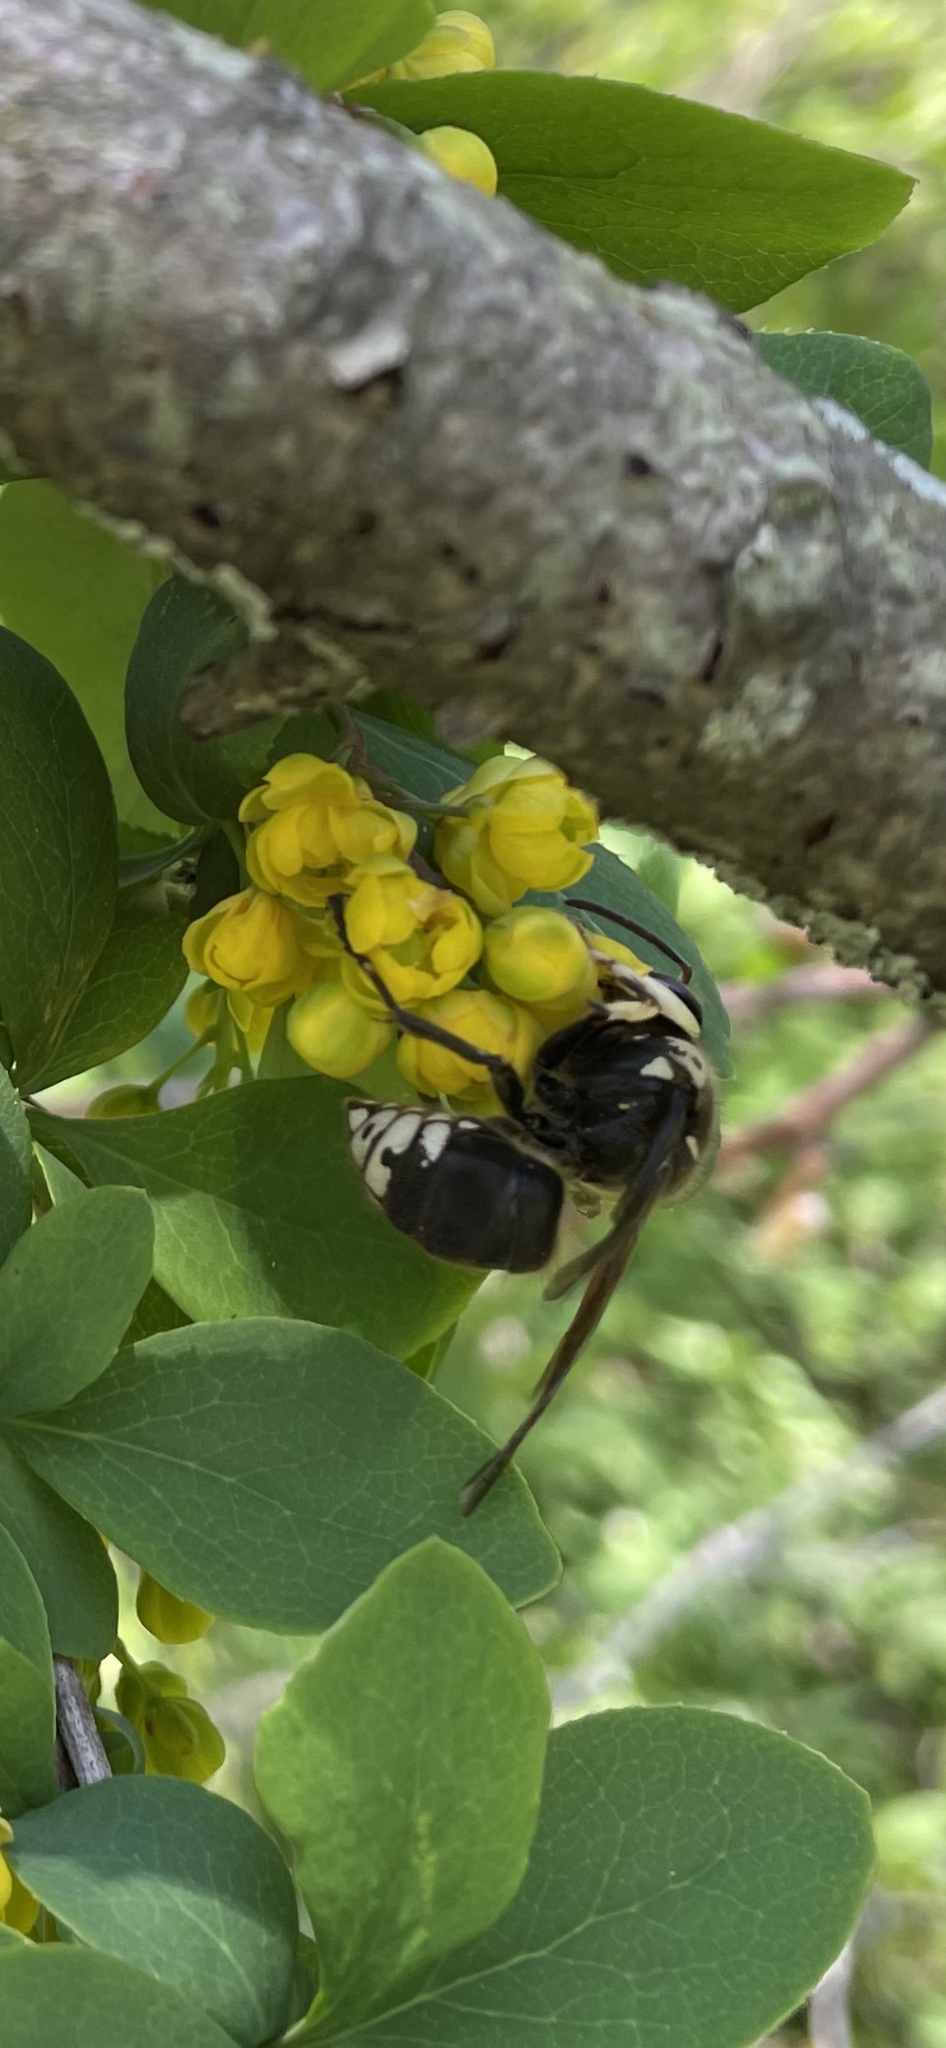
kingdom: Animalia
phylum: Arthropoda
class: Insecta
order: Hymenoptera
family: Vespidae
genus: Dolichovespula
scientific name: Dolichovespula maculata
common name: Bald-faced hornet
